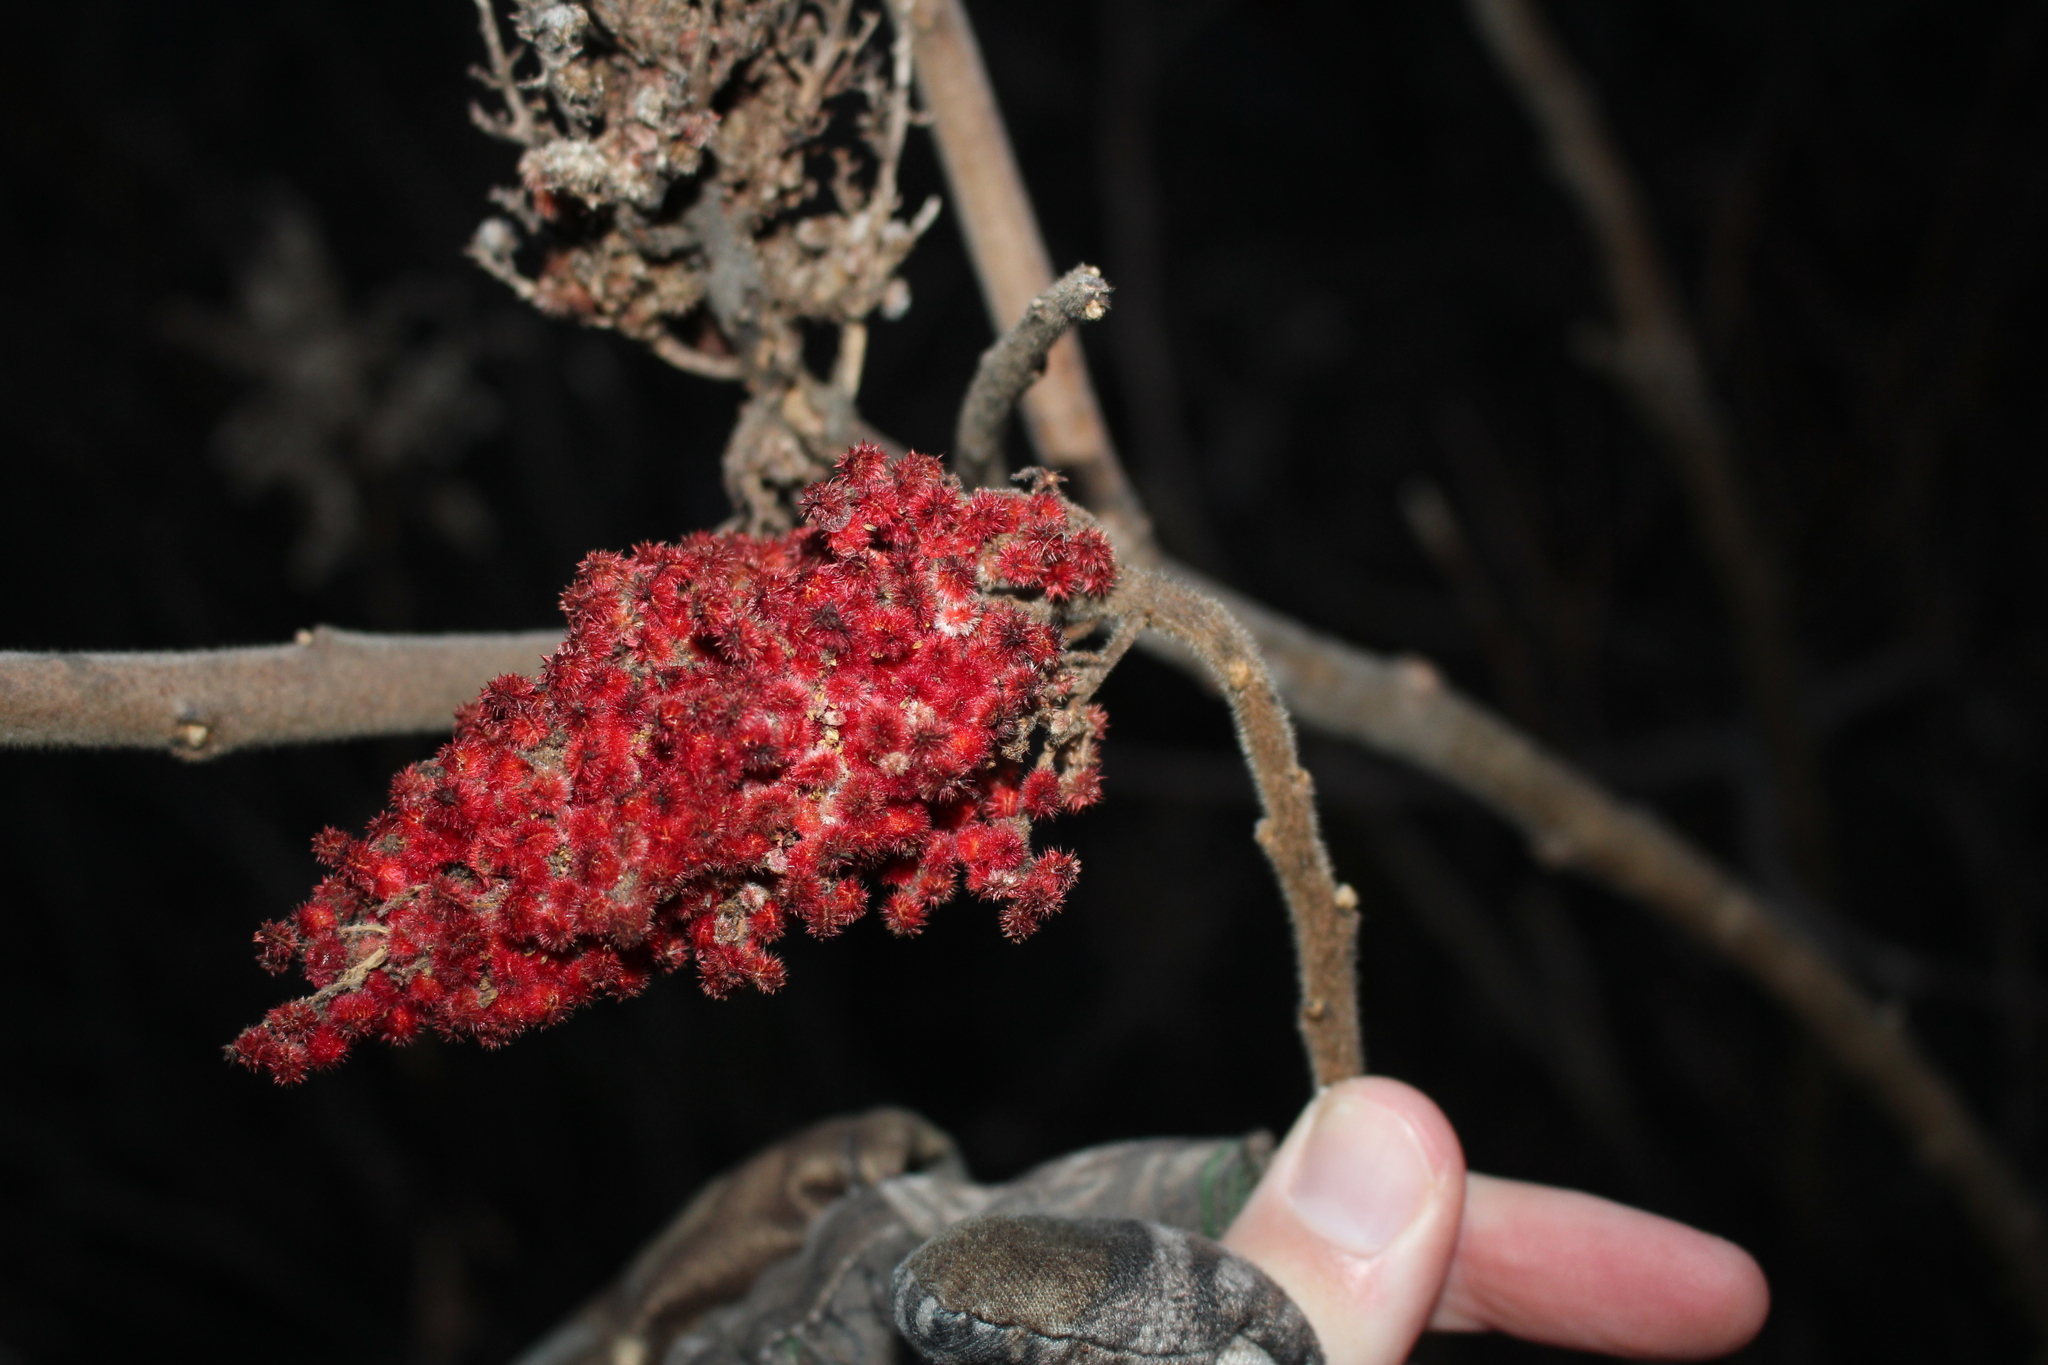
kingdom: Plantae
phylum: Tracheophyta
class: Magnoliopsida
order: Sapindales
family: Anacardiaceae
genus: Rhus
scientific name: Rhus typhina
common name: Staghorn sumac
